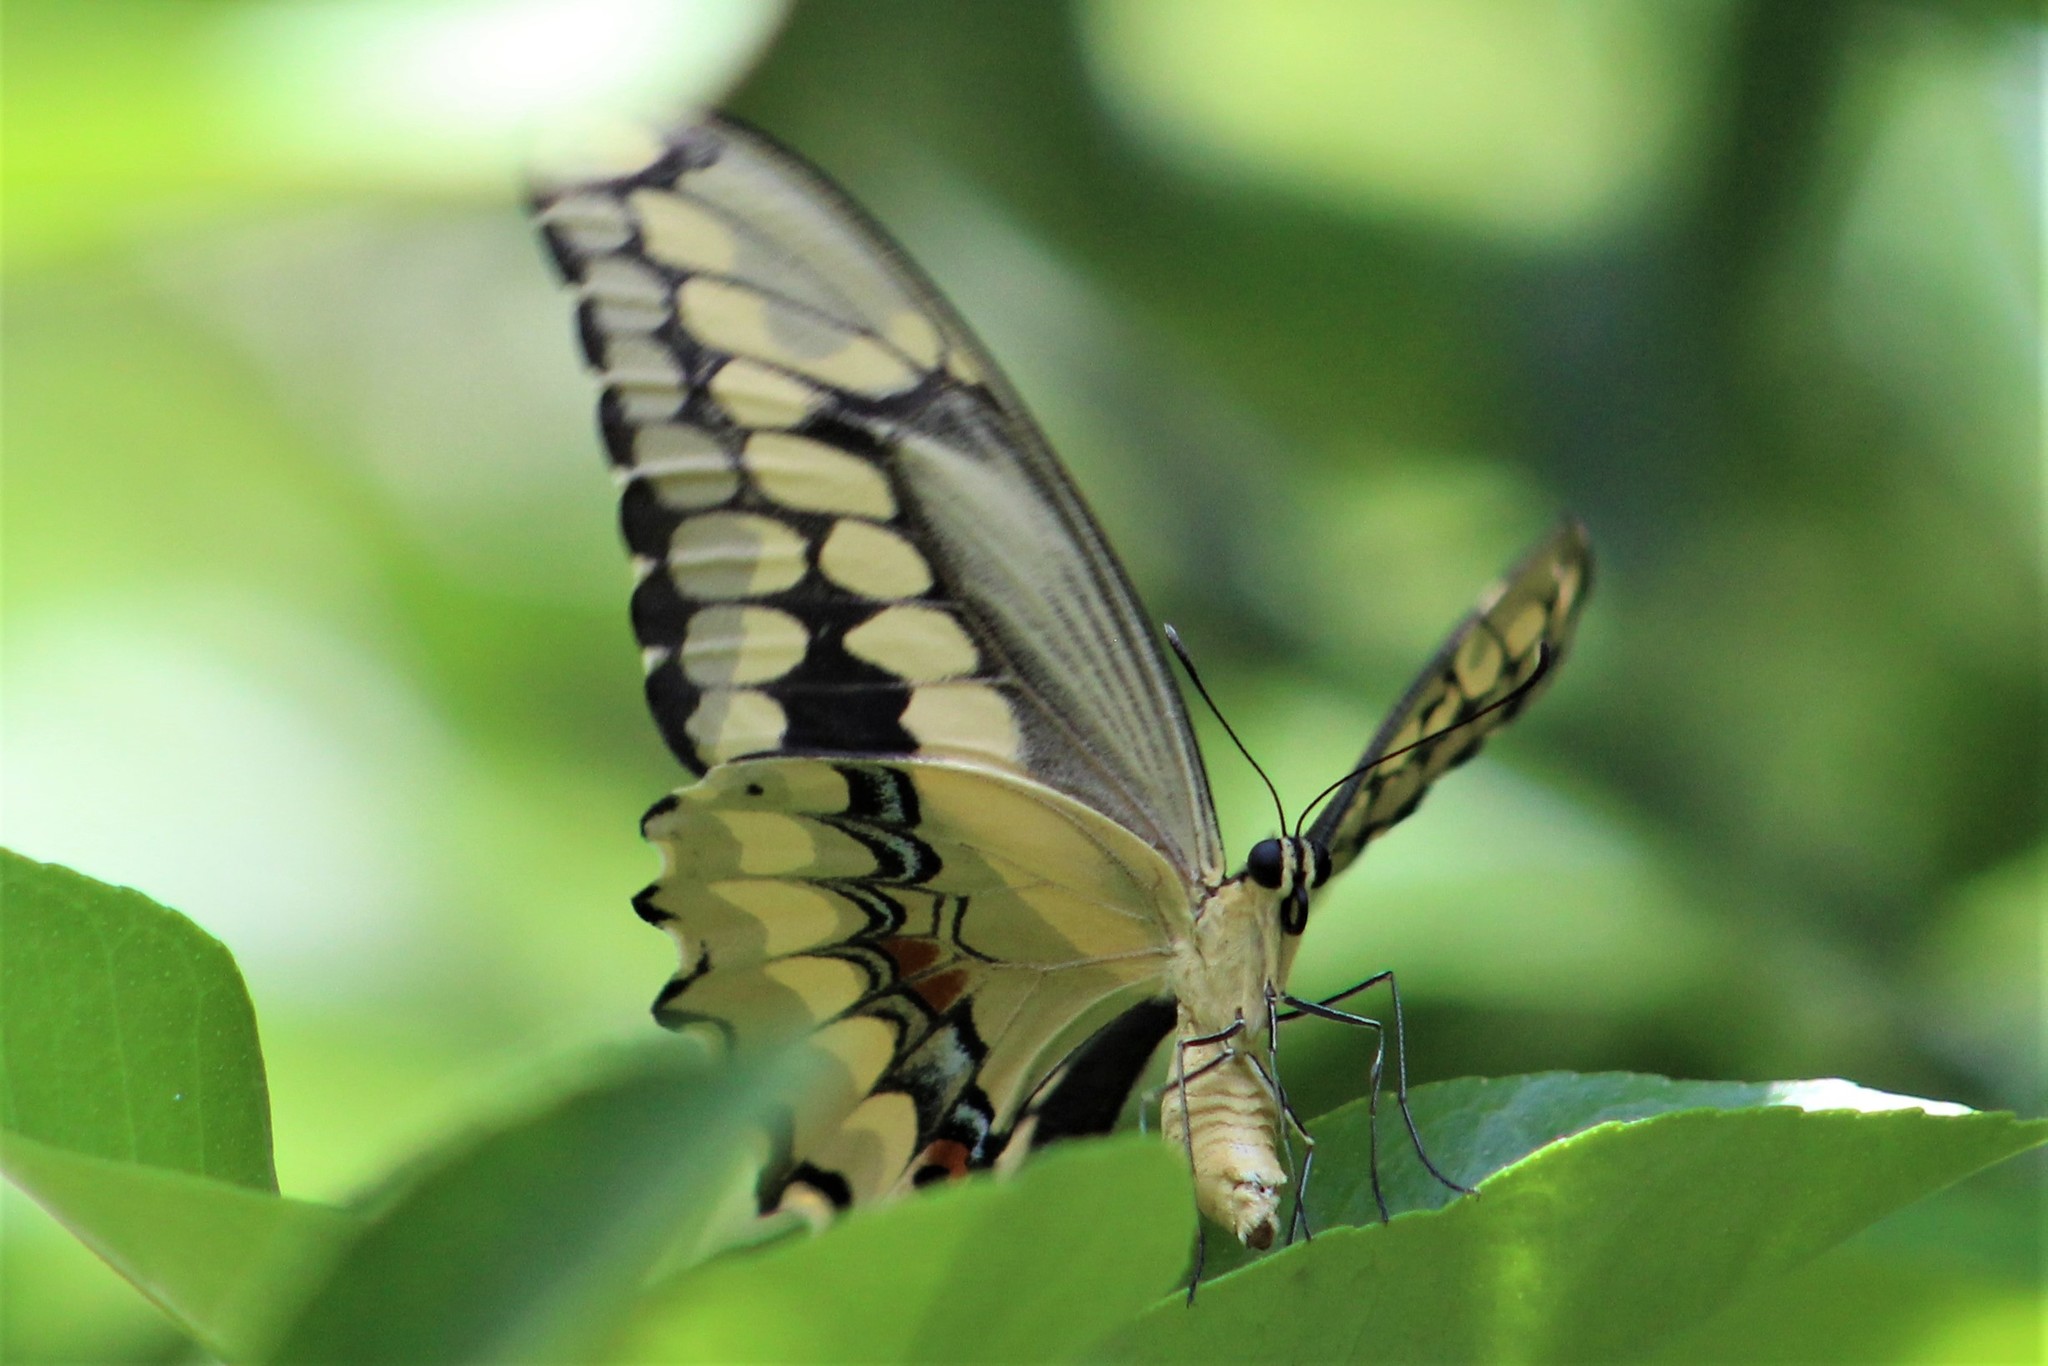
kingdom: Animalia
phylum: Arthropoda
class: Insecta
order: Lepidoptera
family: Papilionidae
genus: Papilio
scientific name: Papilio rumiko
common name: Western giant swallowtail
